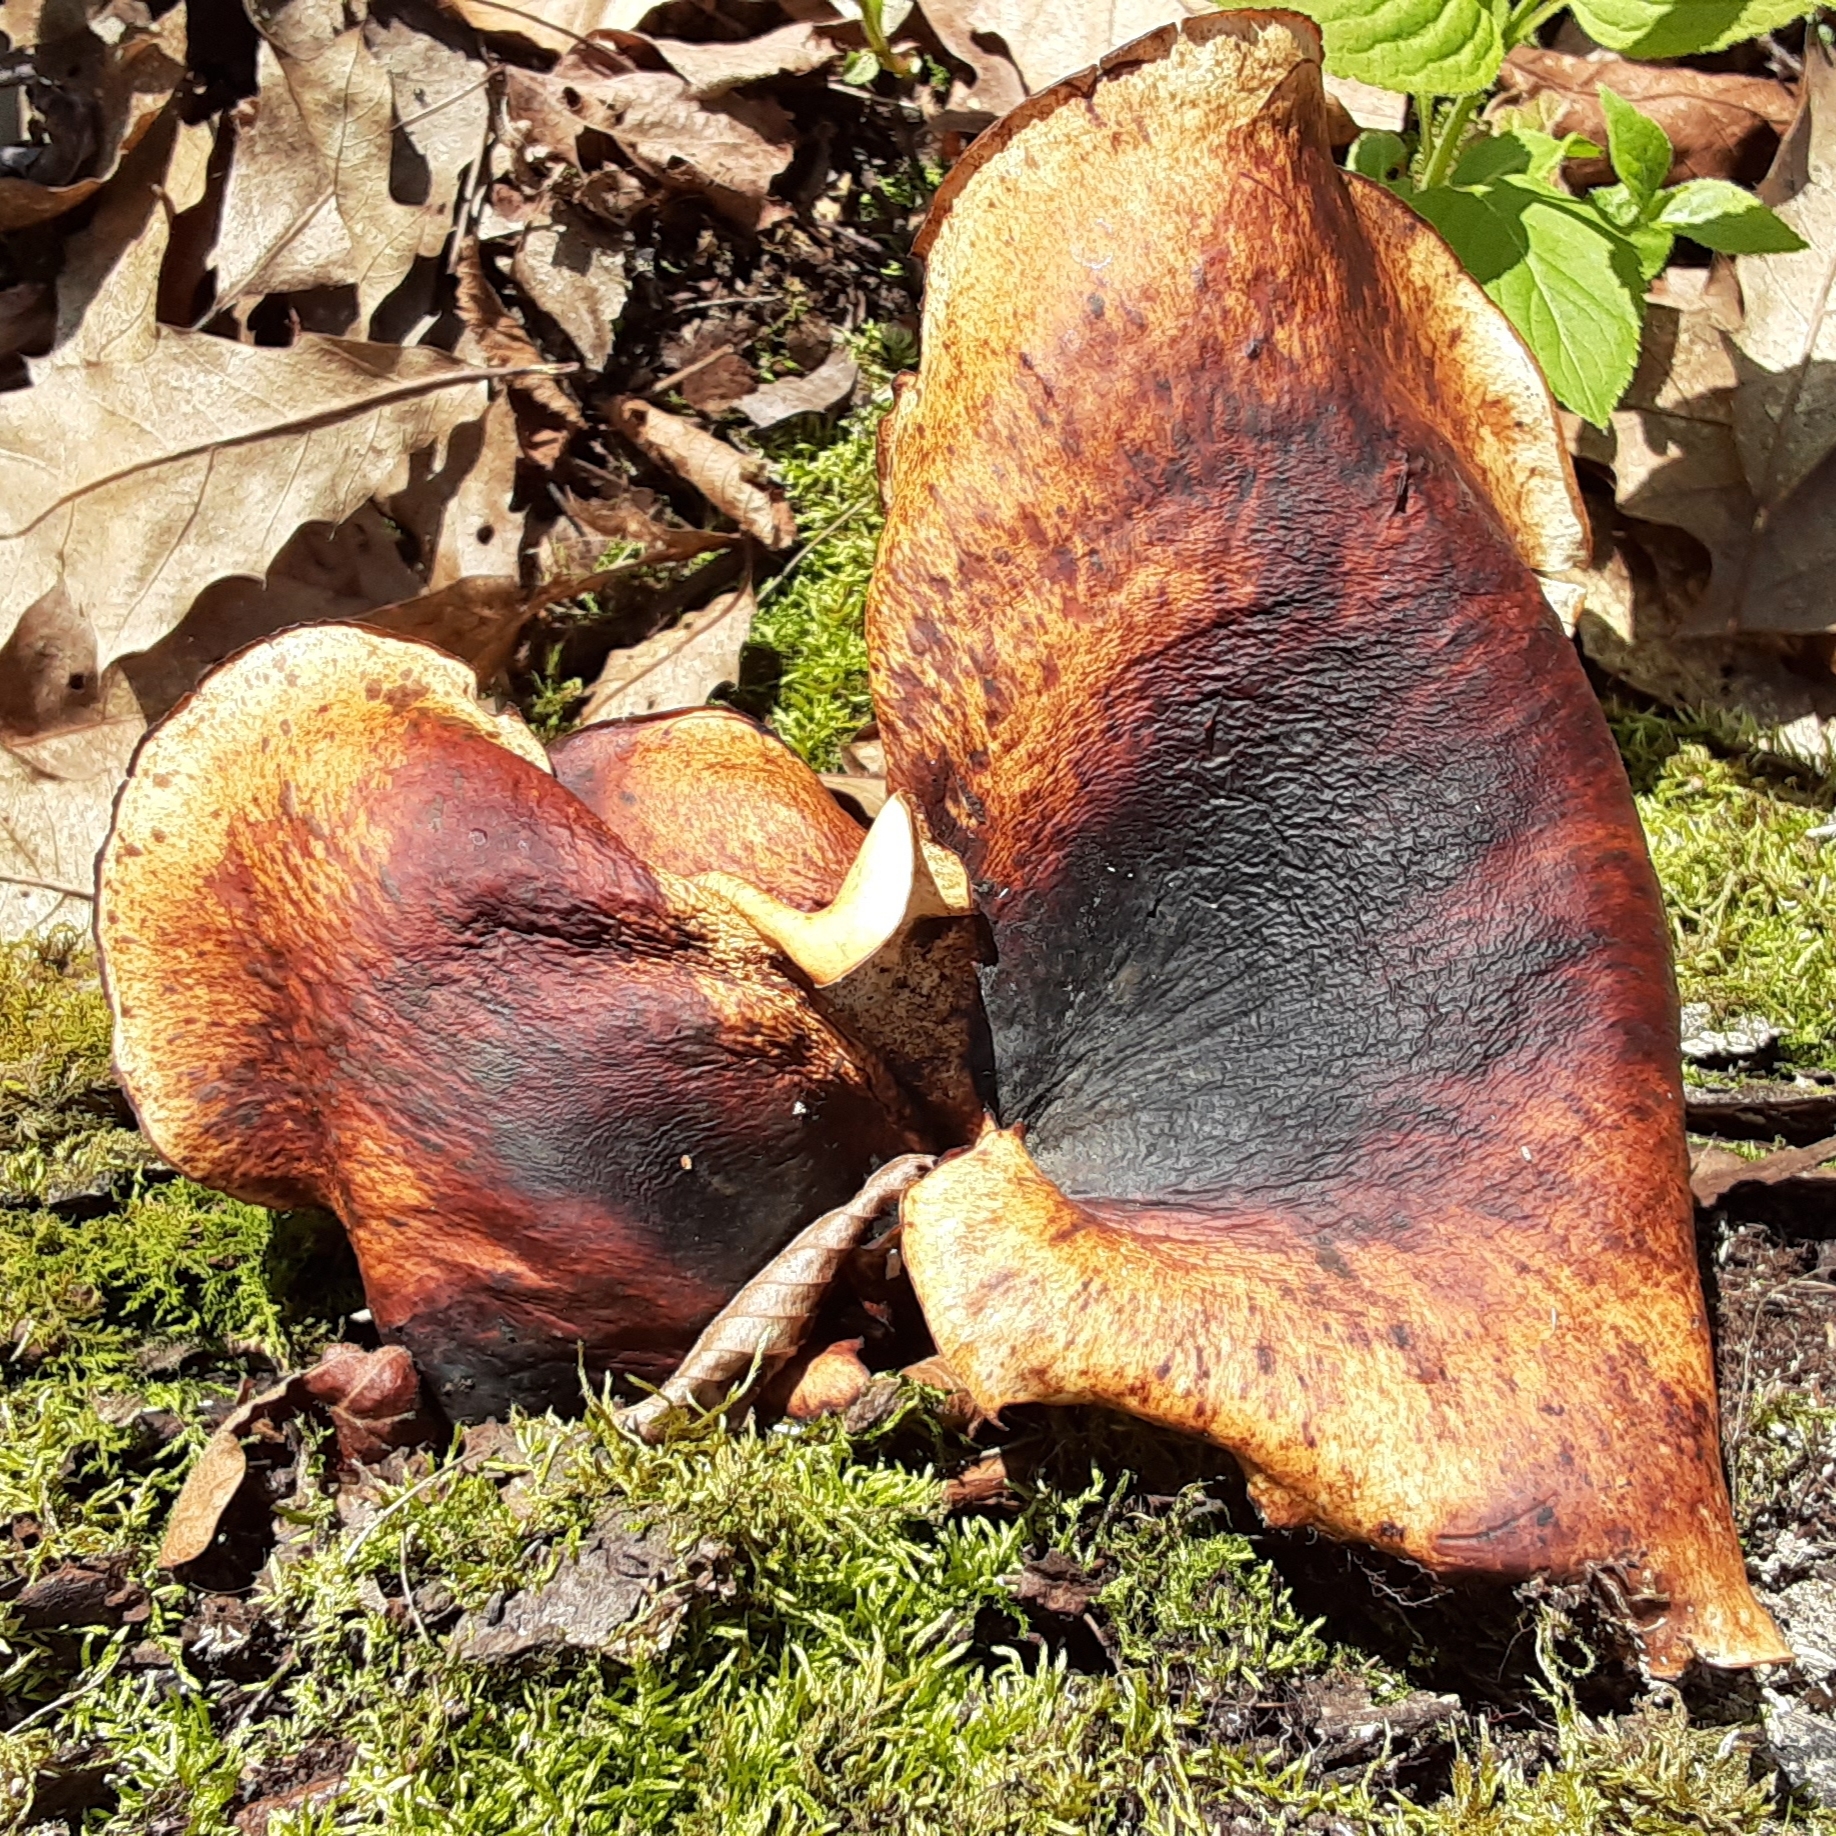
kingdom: Fungi
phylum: Basidiomycota
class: Agaricomycetes
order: Polyporales
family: Polyporaceae
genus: Picipes
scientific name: Picipes badius
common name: Bay polypore
